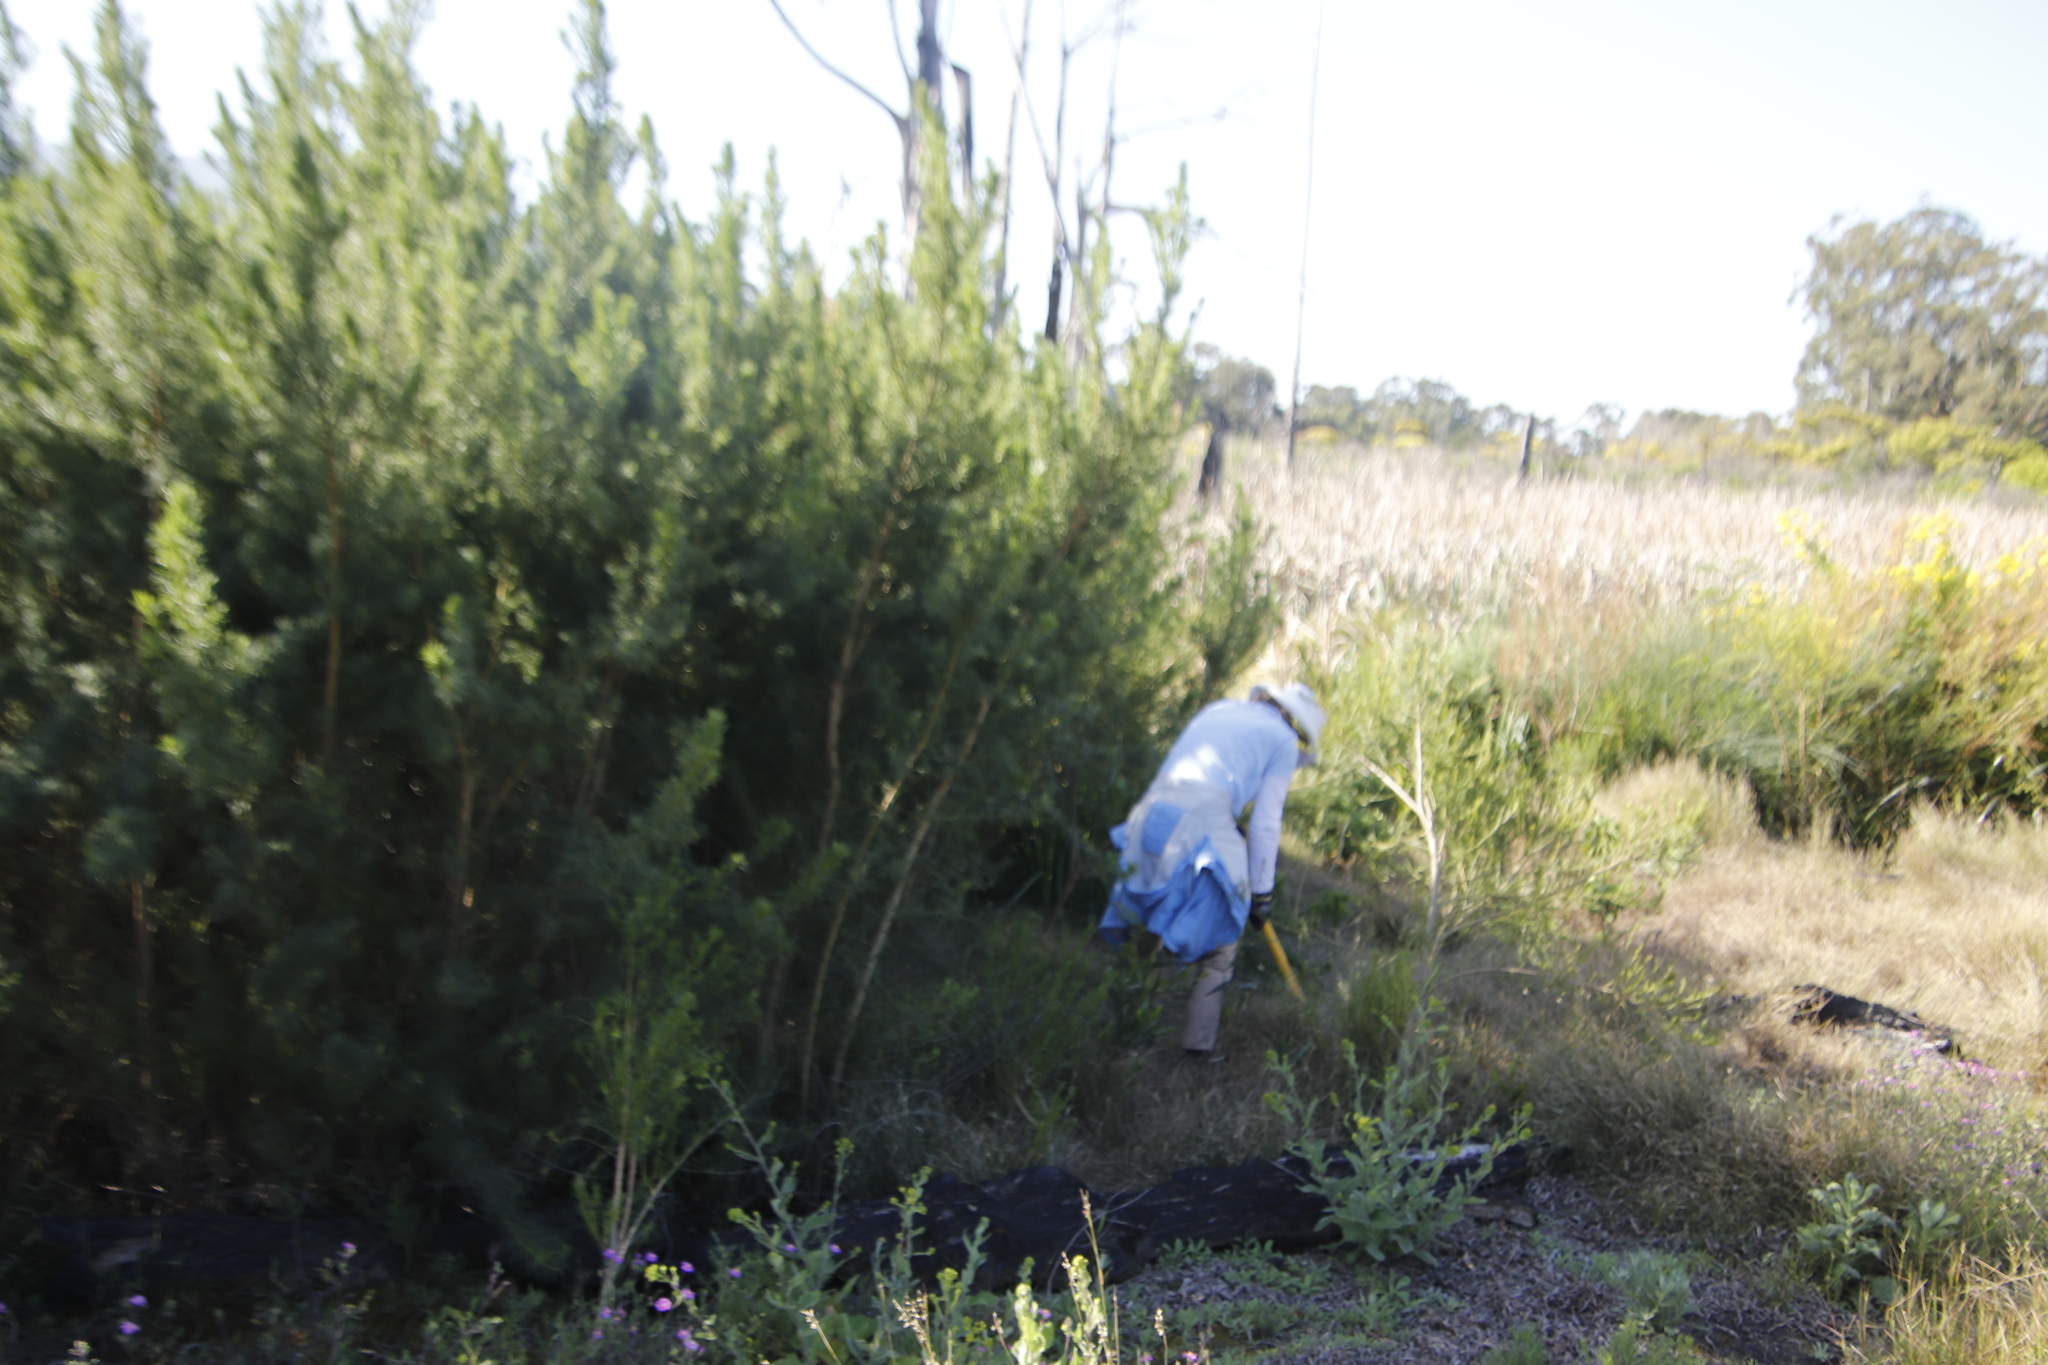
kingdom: Plantae
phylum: Tracheophyta
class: Magnoliopsida
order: Fabales
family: Fabaceae
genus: Psoralea
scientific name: Psoralea pinnata
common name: African scurfpea
